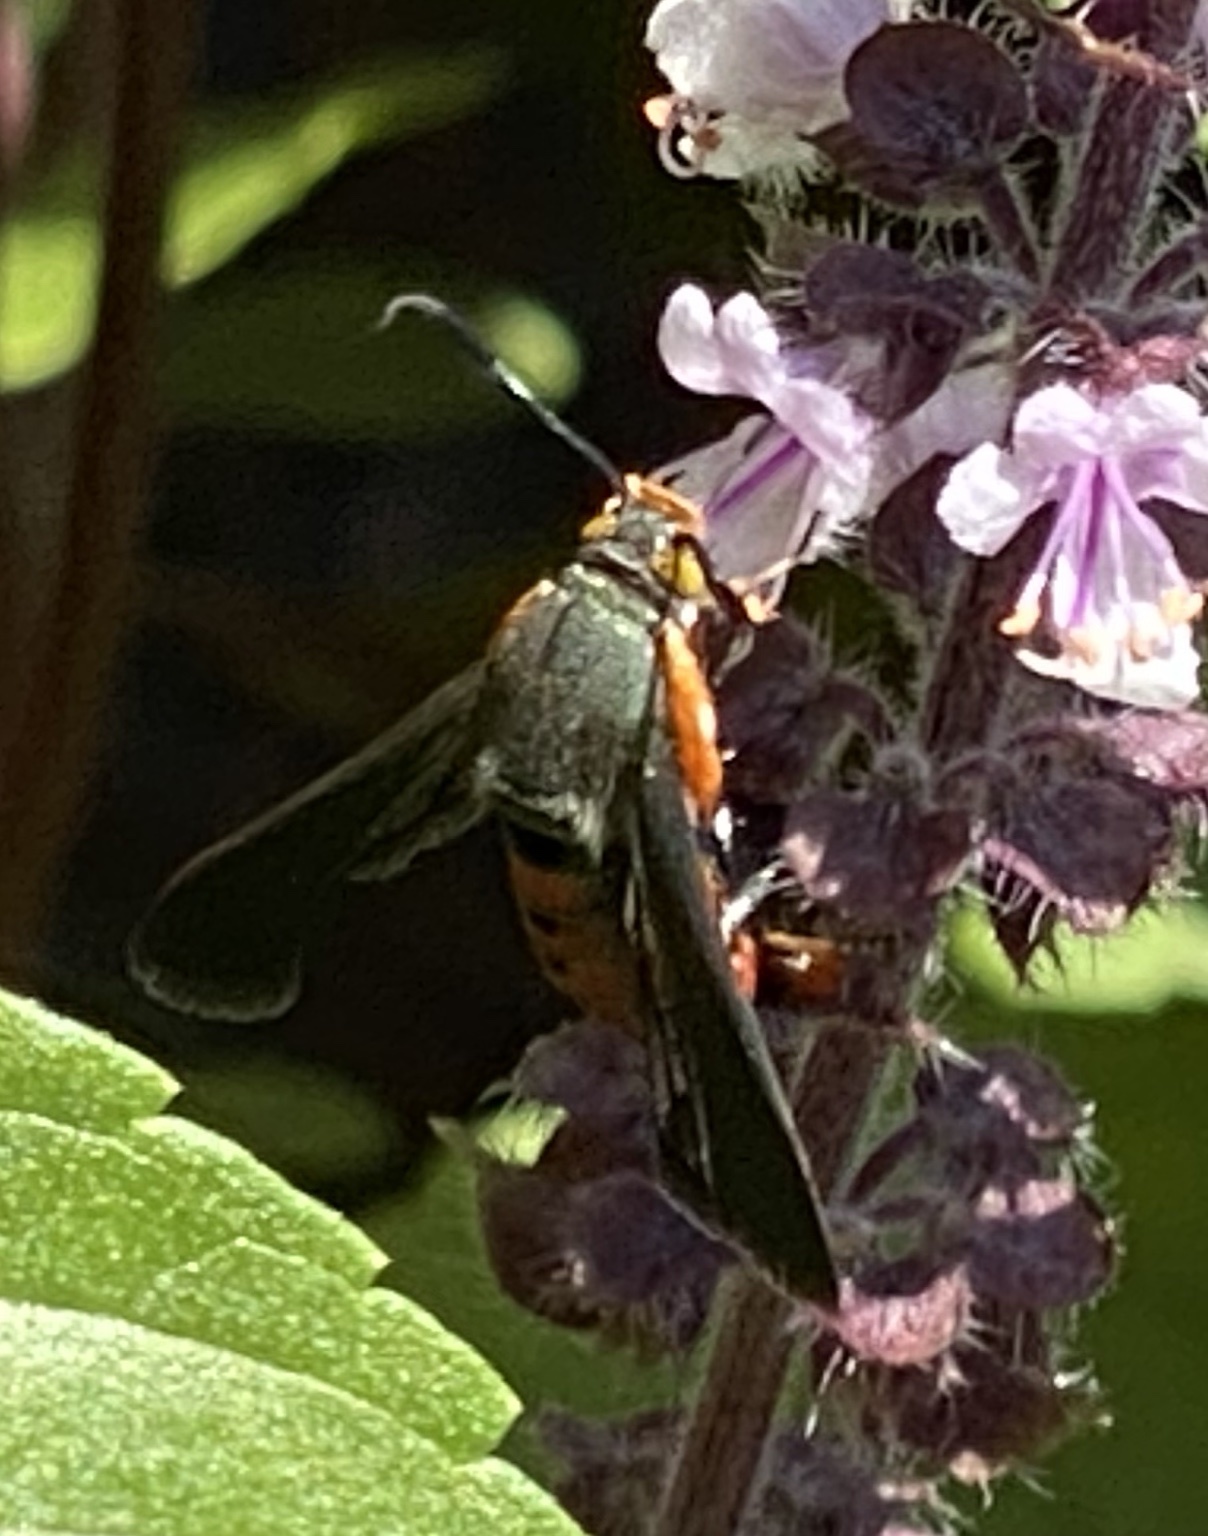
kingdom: Animalia
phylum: Arthropoda
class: Insecta
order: Lepidoptera
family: Sesiidae
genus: Eichlinia
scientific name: Eichlinia cucurbitae
